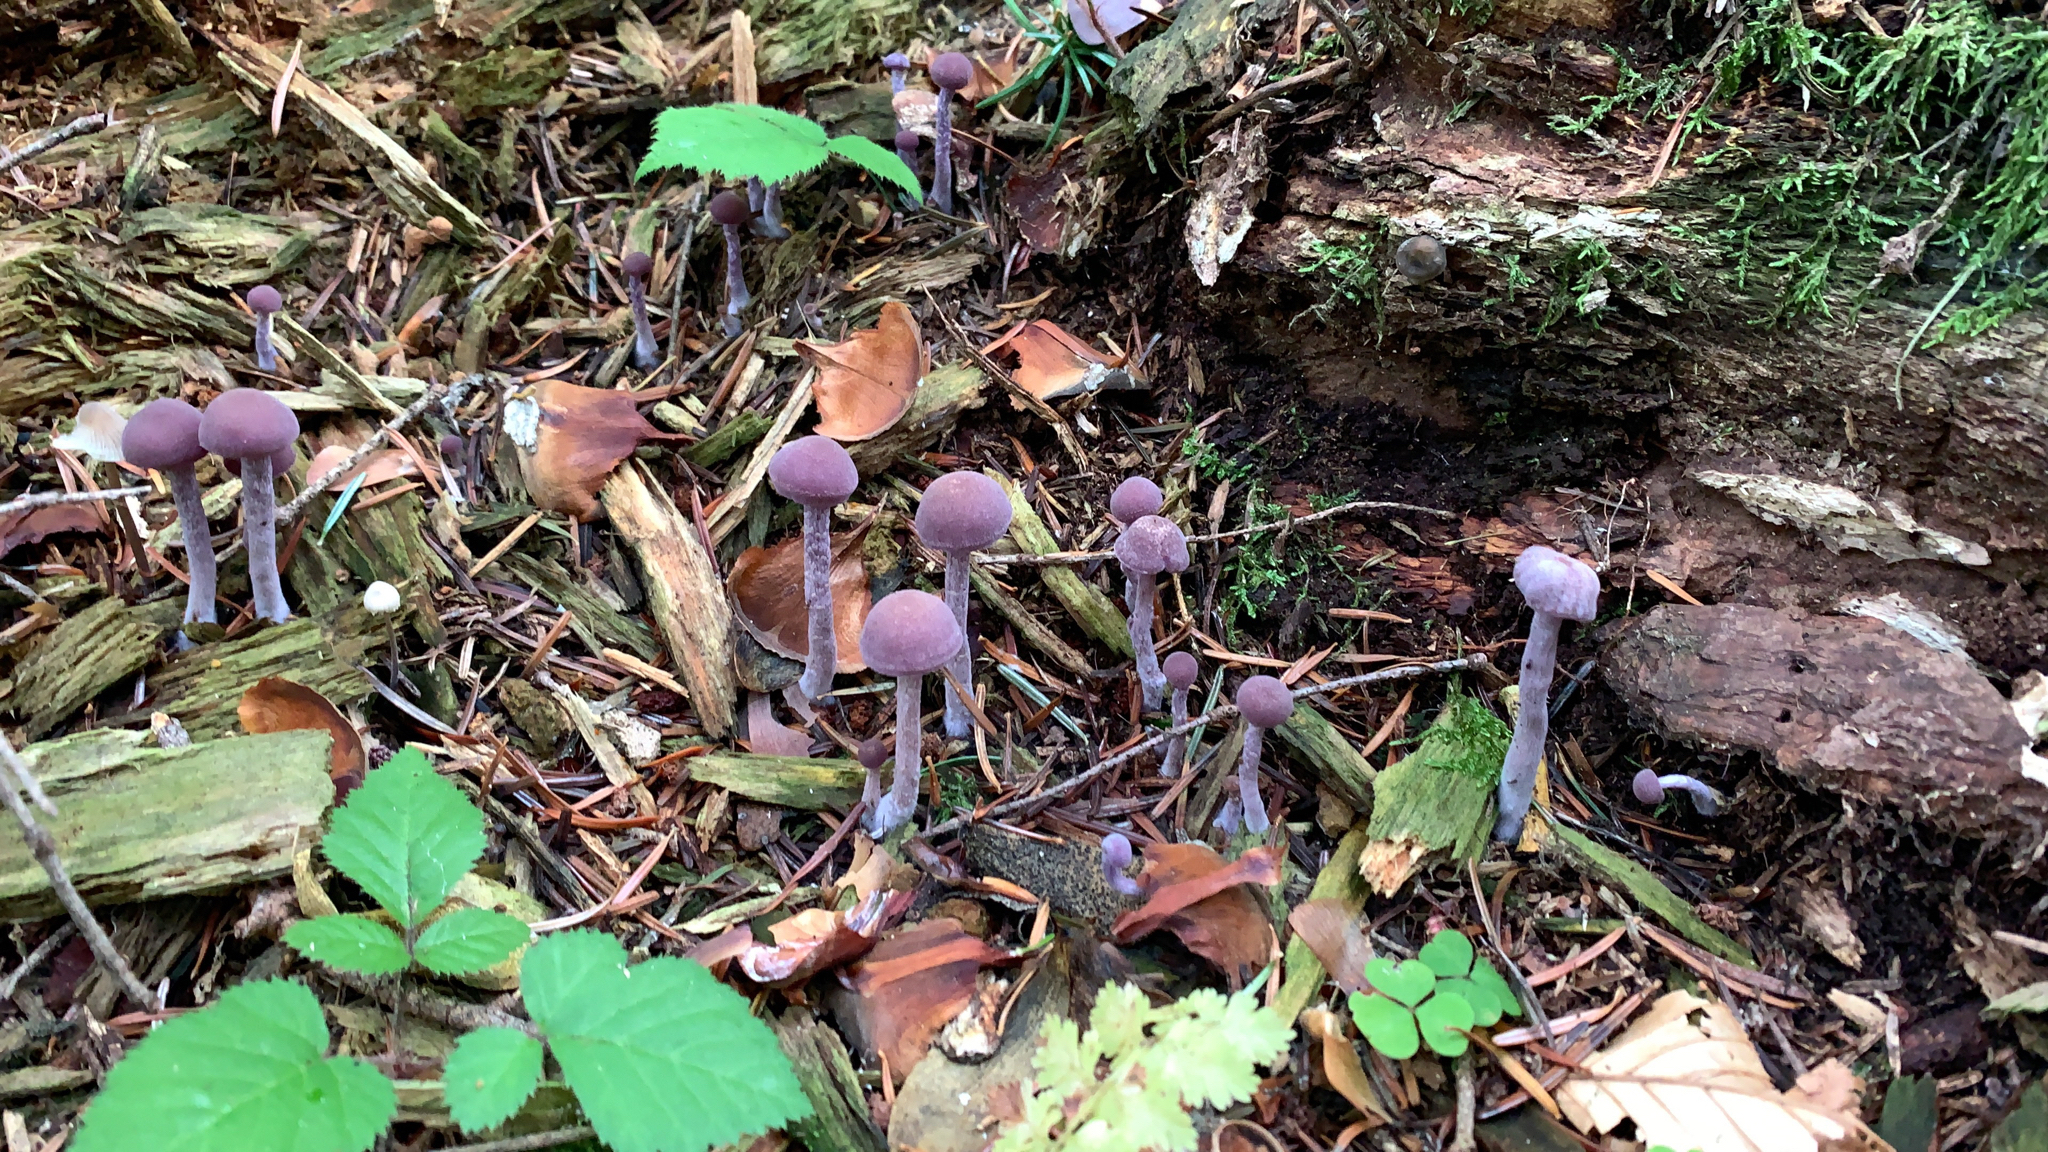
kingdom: Fungi
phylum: Basidiomycota
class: Agaricomycetes
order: Agaricales
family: Hydnangiaceae
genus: Laccaria
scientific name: Laccaria amethystina
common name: Amethyst deceiver
